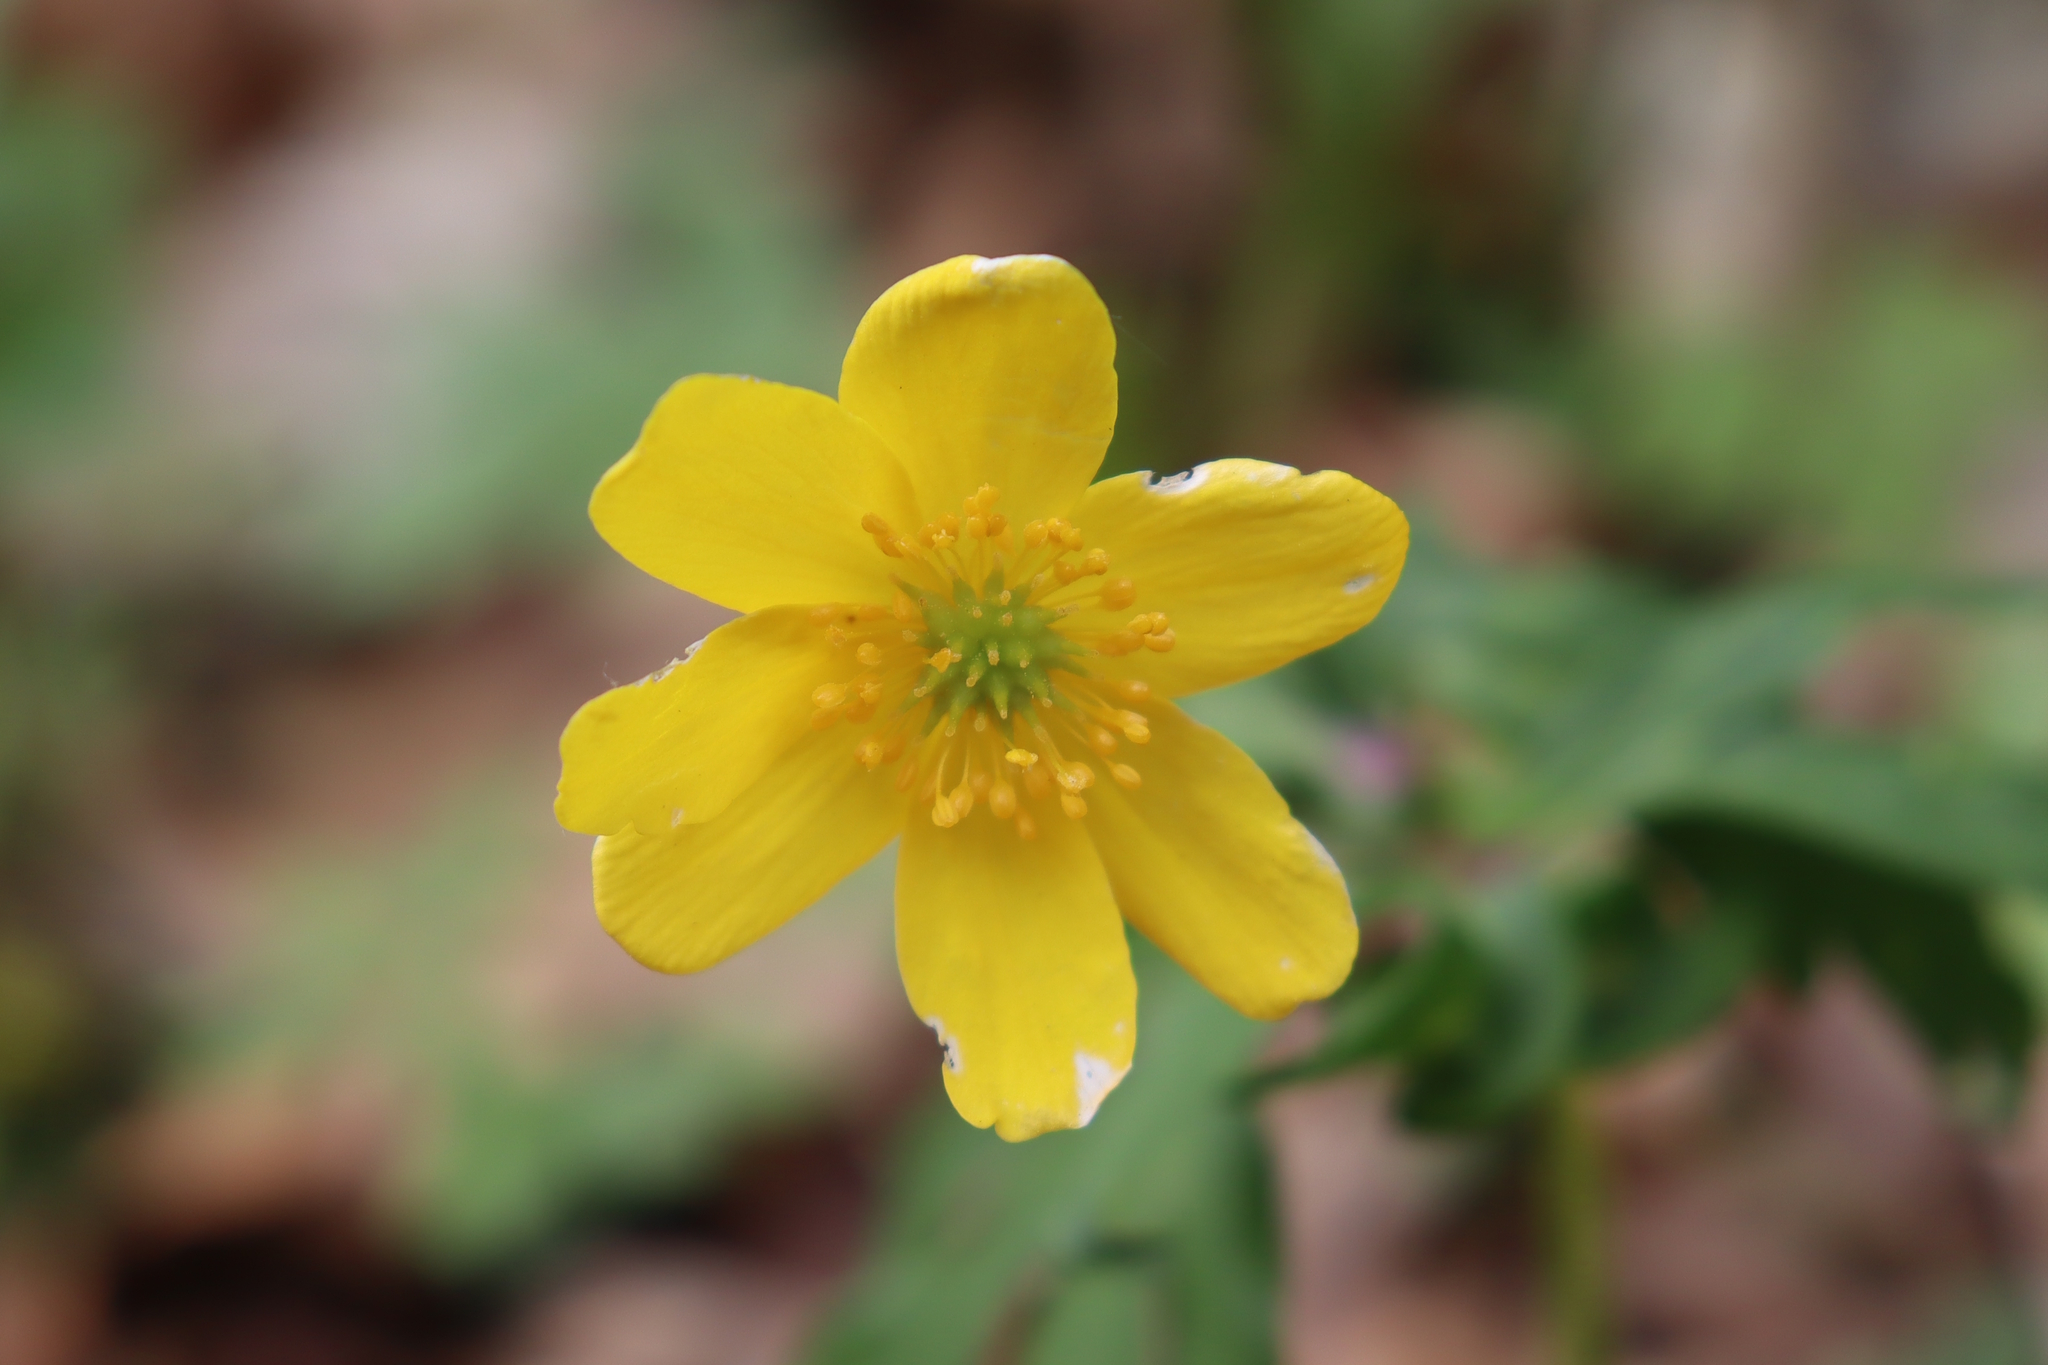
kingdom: Plantae
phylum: Tracheophyta
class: Magnoliopsida
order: Ranunculales
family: Ranunculaceae
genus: Anemone
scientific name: Anemone ranunculoides
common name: Yellow anemone
